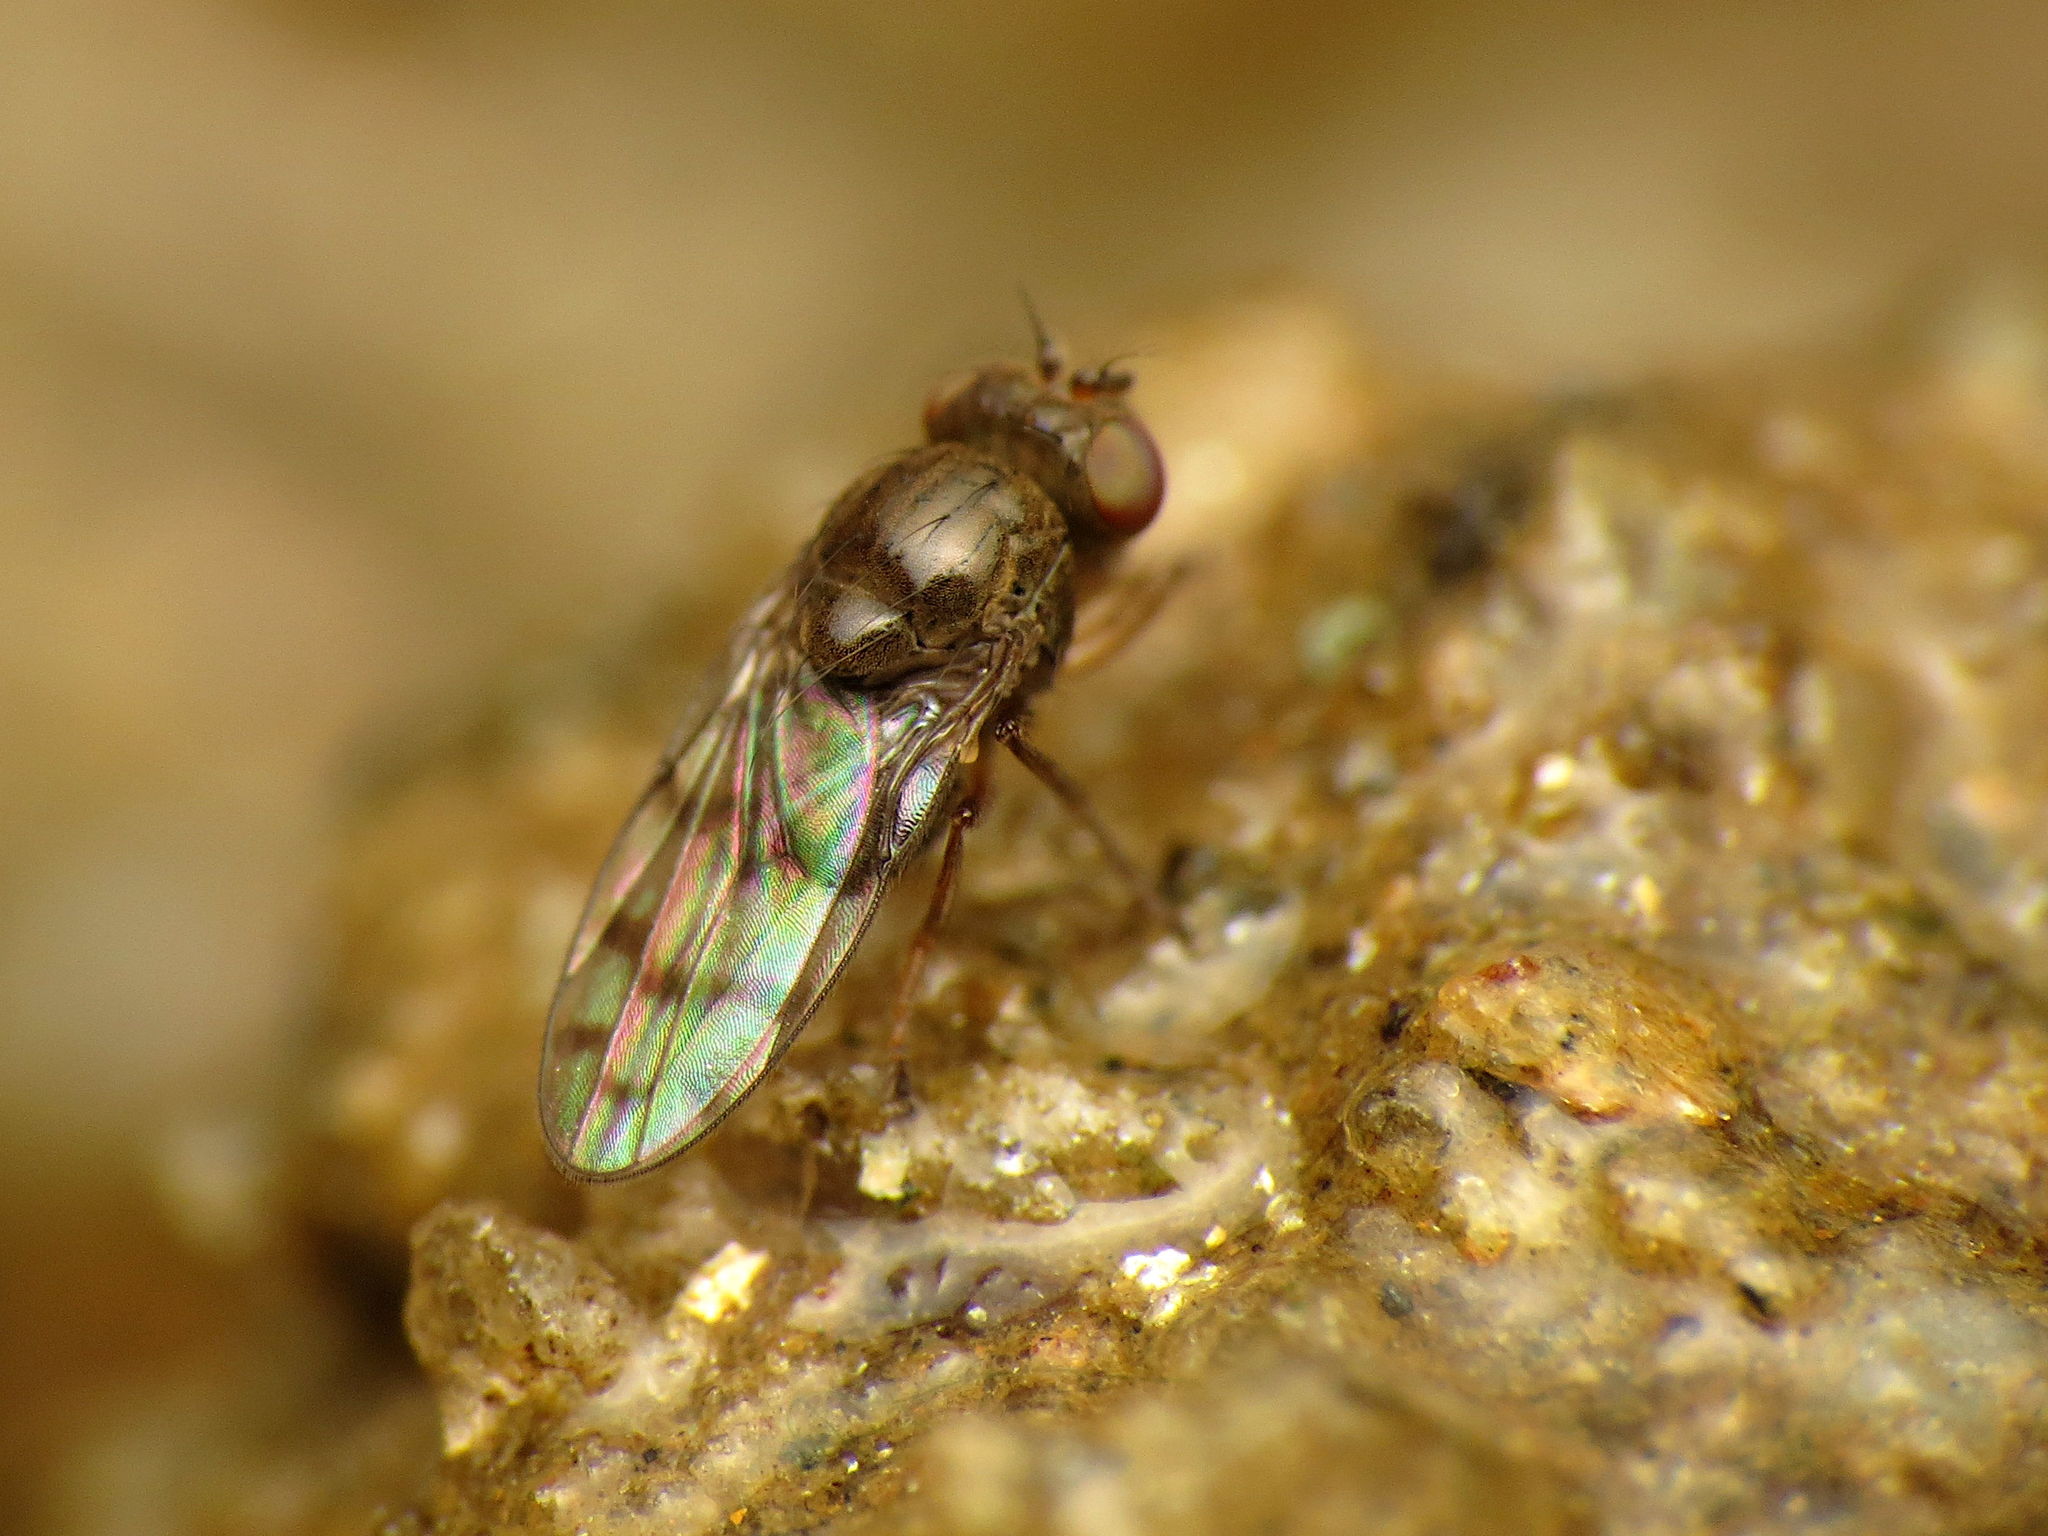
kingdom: Animalia
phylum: Arthropoda
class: Insecta
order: Diptera
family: Ephydridae
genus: Zeros
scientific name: Zeros flavipes
